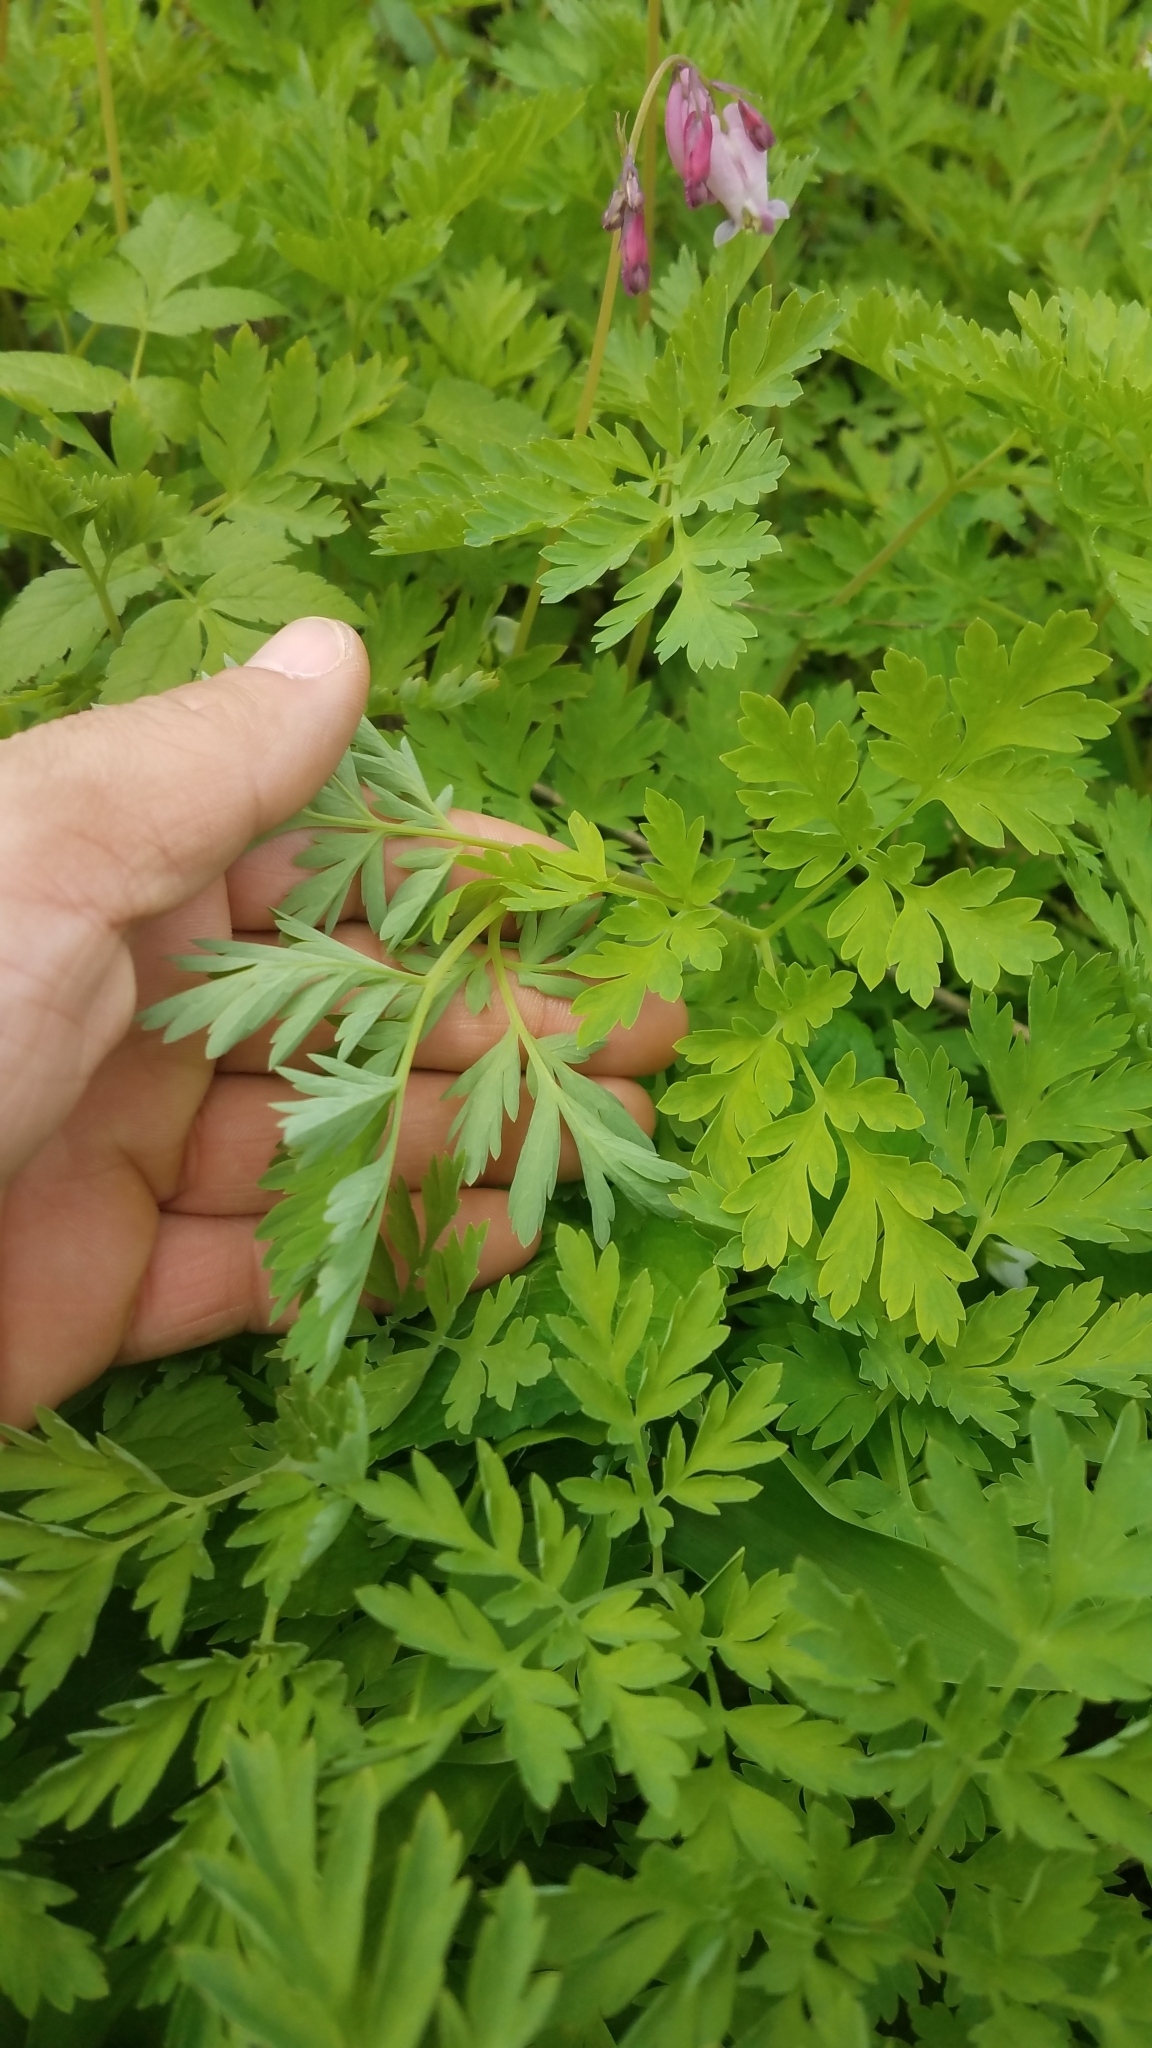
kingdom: Plantae
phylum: Tracheophyta
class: Magnoliopsida
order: Ranunculales
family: Papaveraceae
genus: Dicentra
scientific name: Dicentra eximia
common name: Turkey-corn
